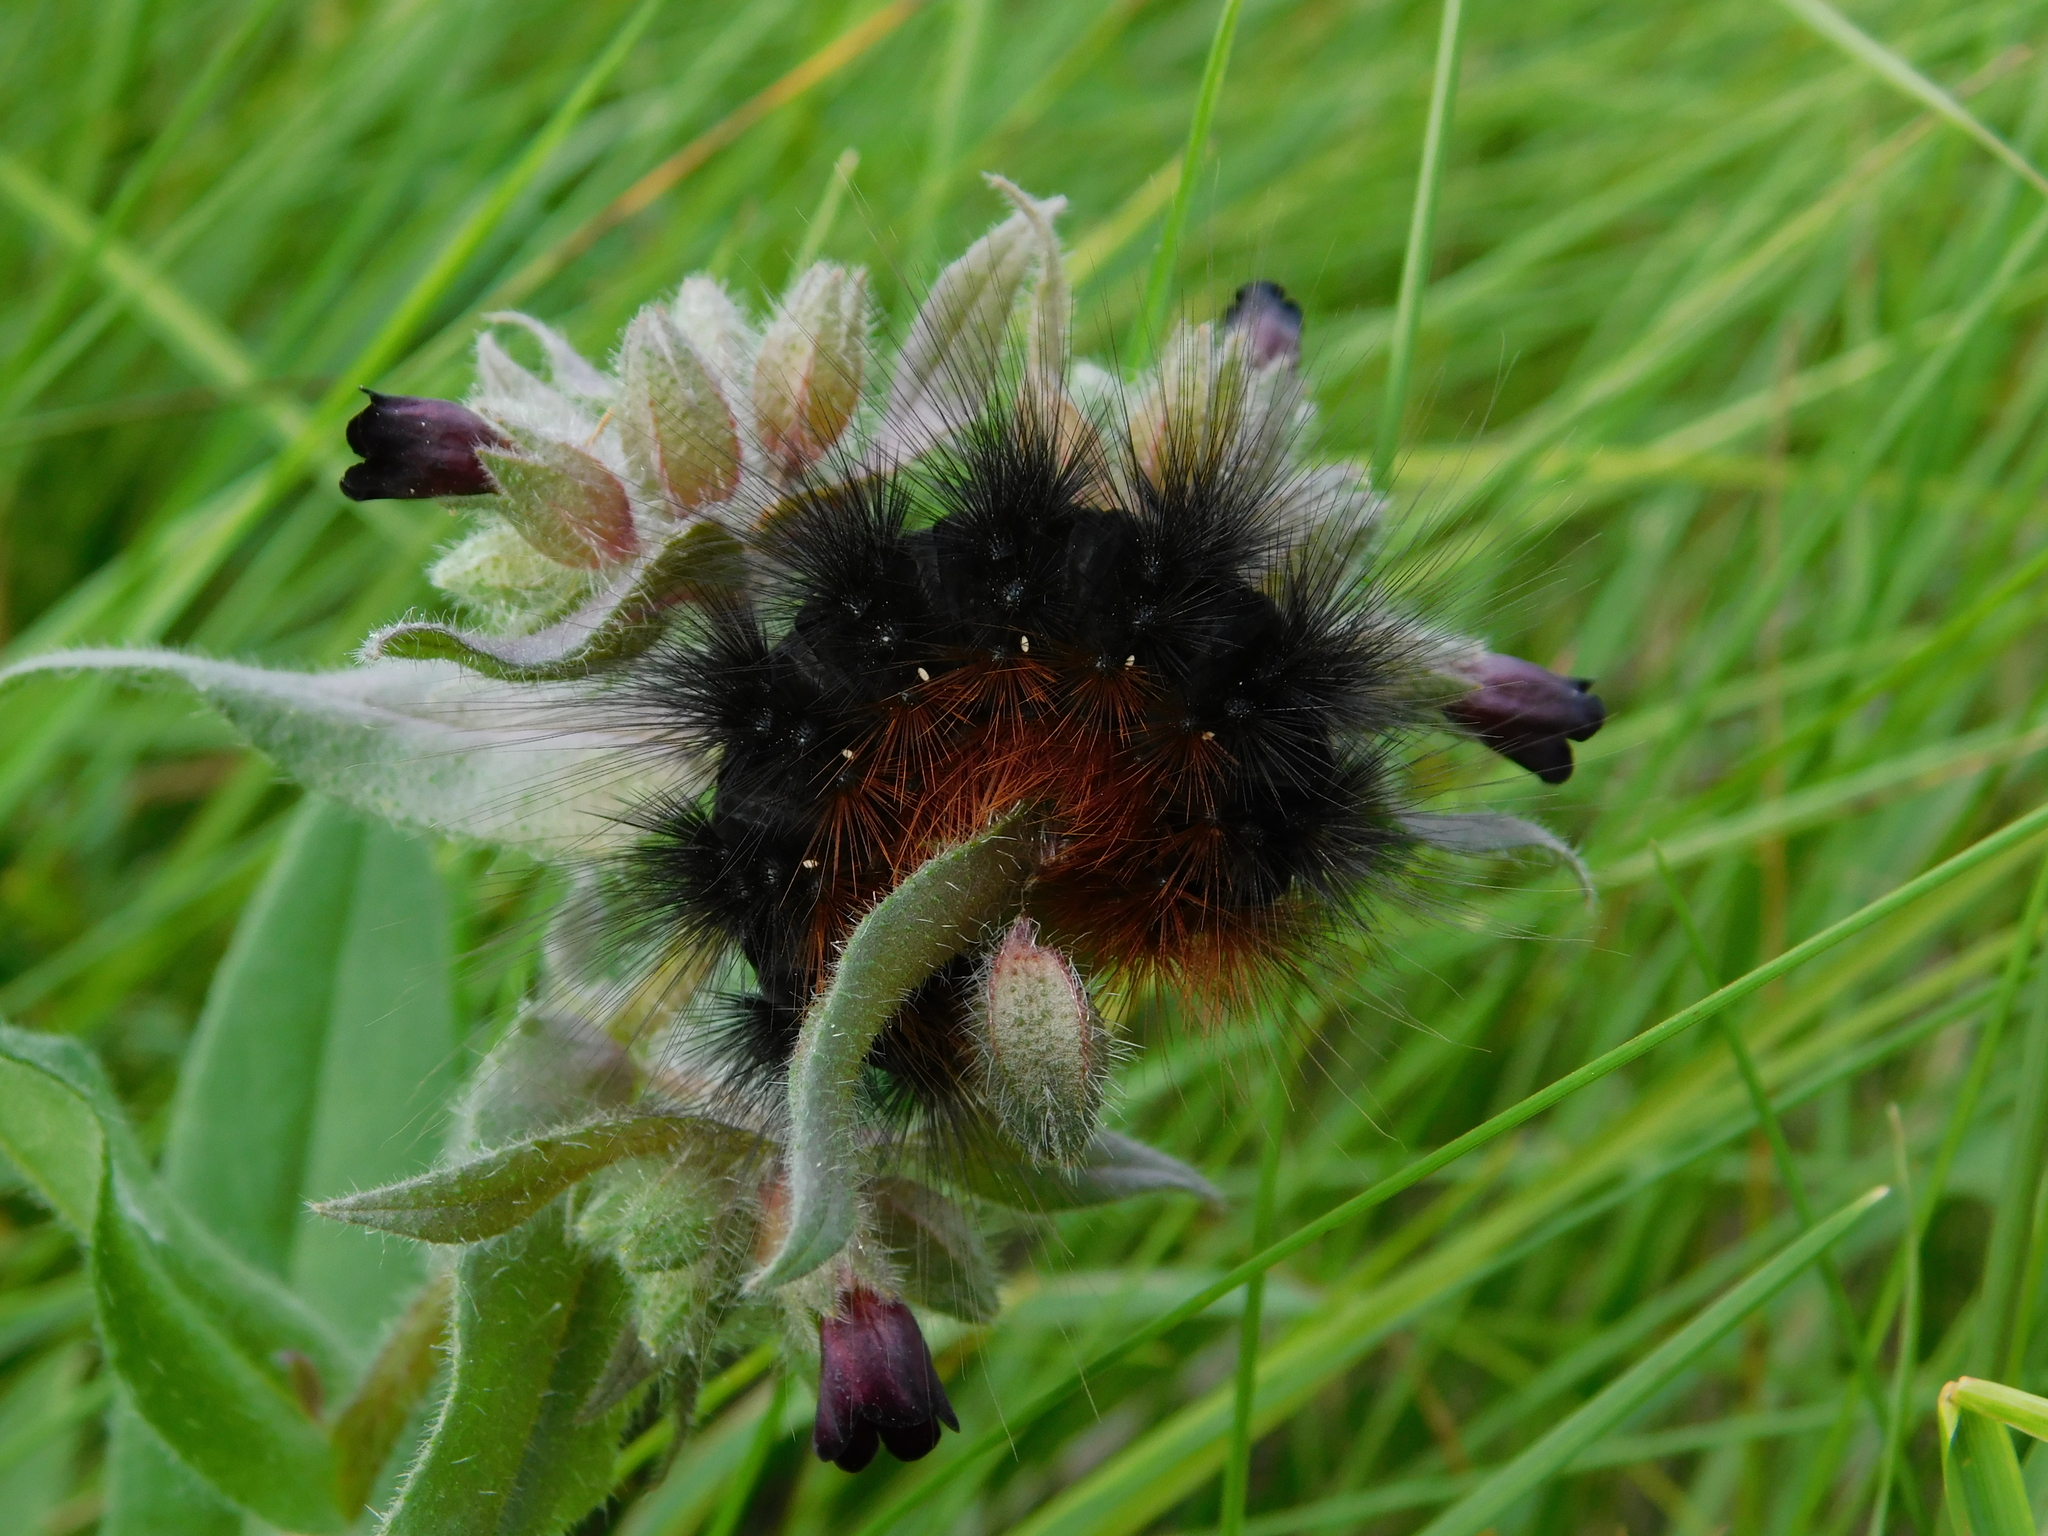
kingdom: Animalia
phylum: Arthropoda
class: Insecta
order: Lepidoptera
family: Erebidae
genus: Arctia
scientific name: Arctia caja
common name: Garden tiger
